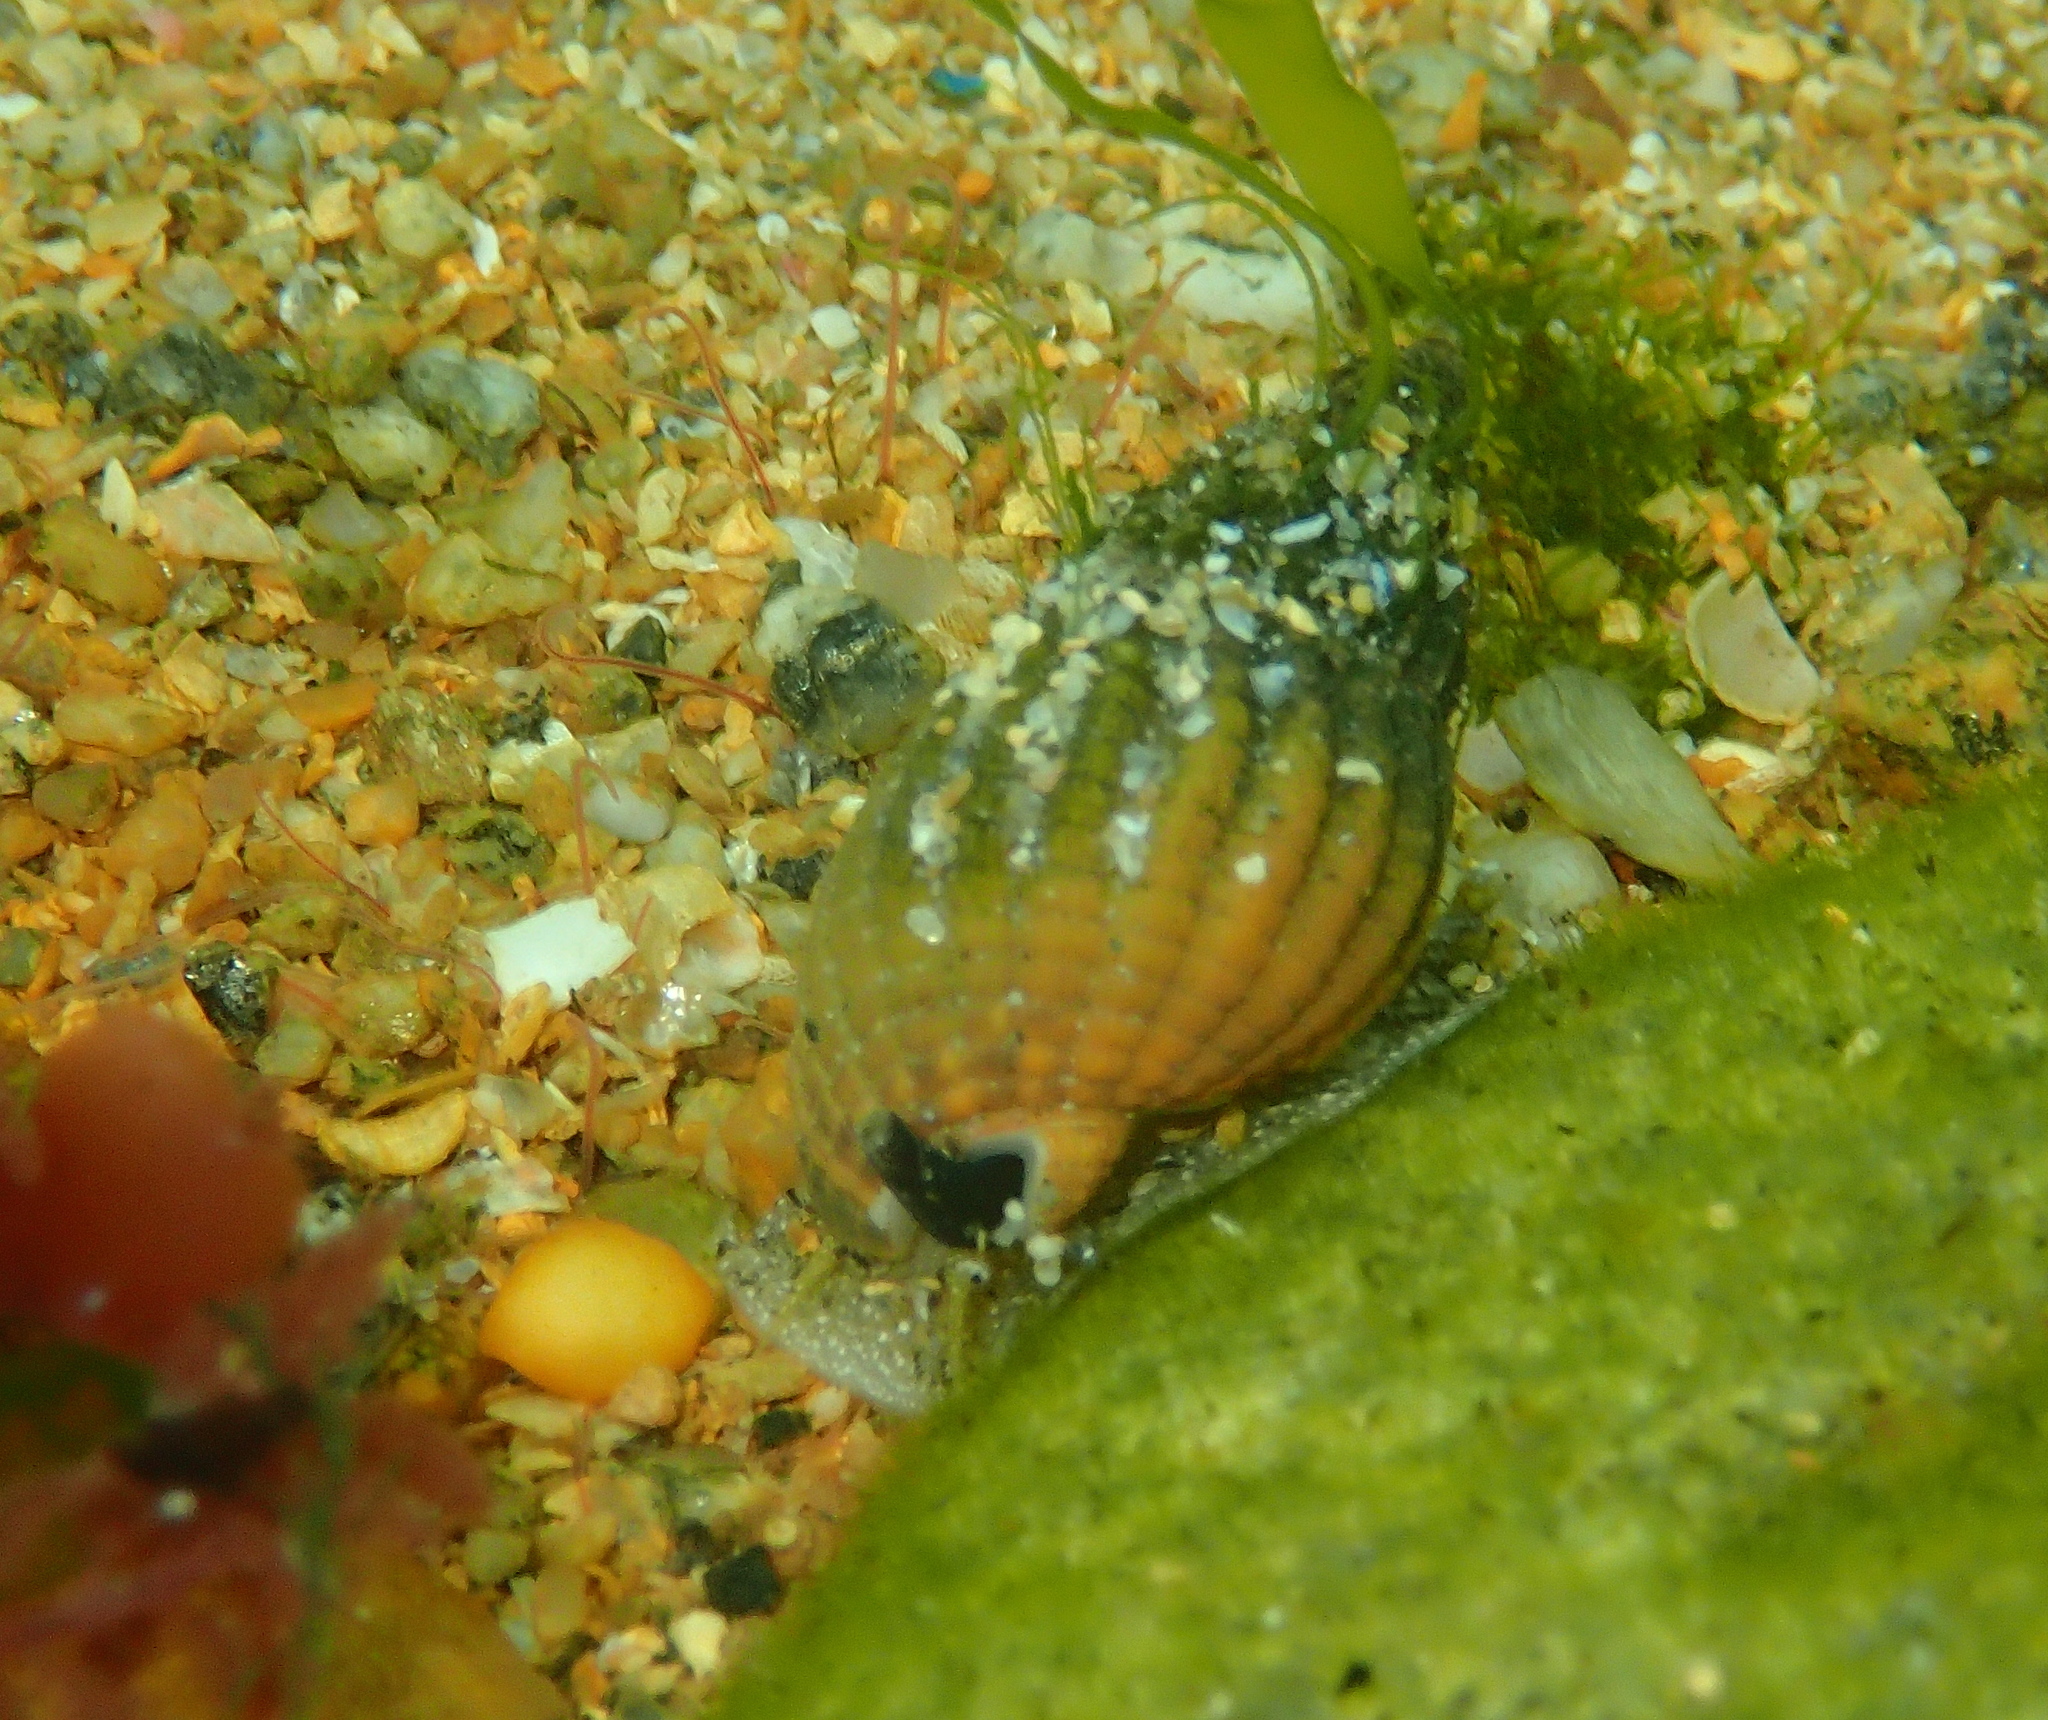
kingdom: Animalia
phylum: Mollusca
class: Gastropoda
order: Neogastropoda
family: Nassariidae
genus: Tritia
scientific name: Tritia reticulata
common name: Netted dog whelk
